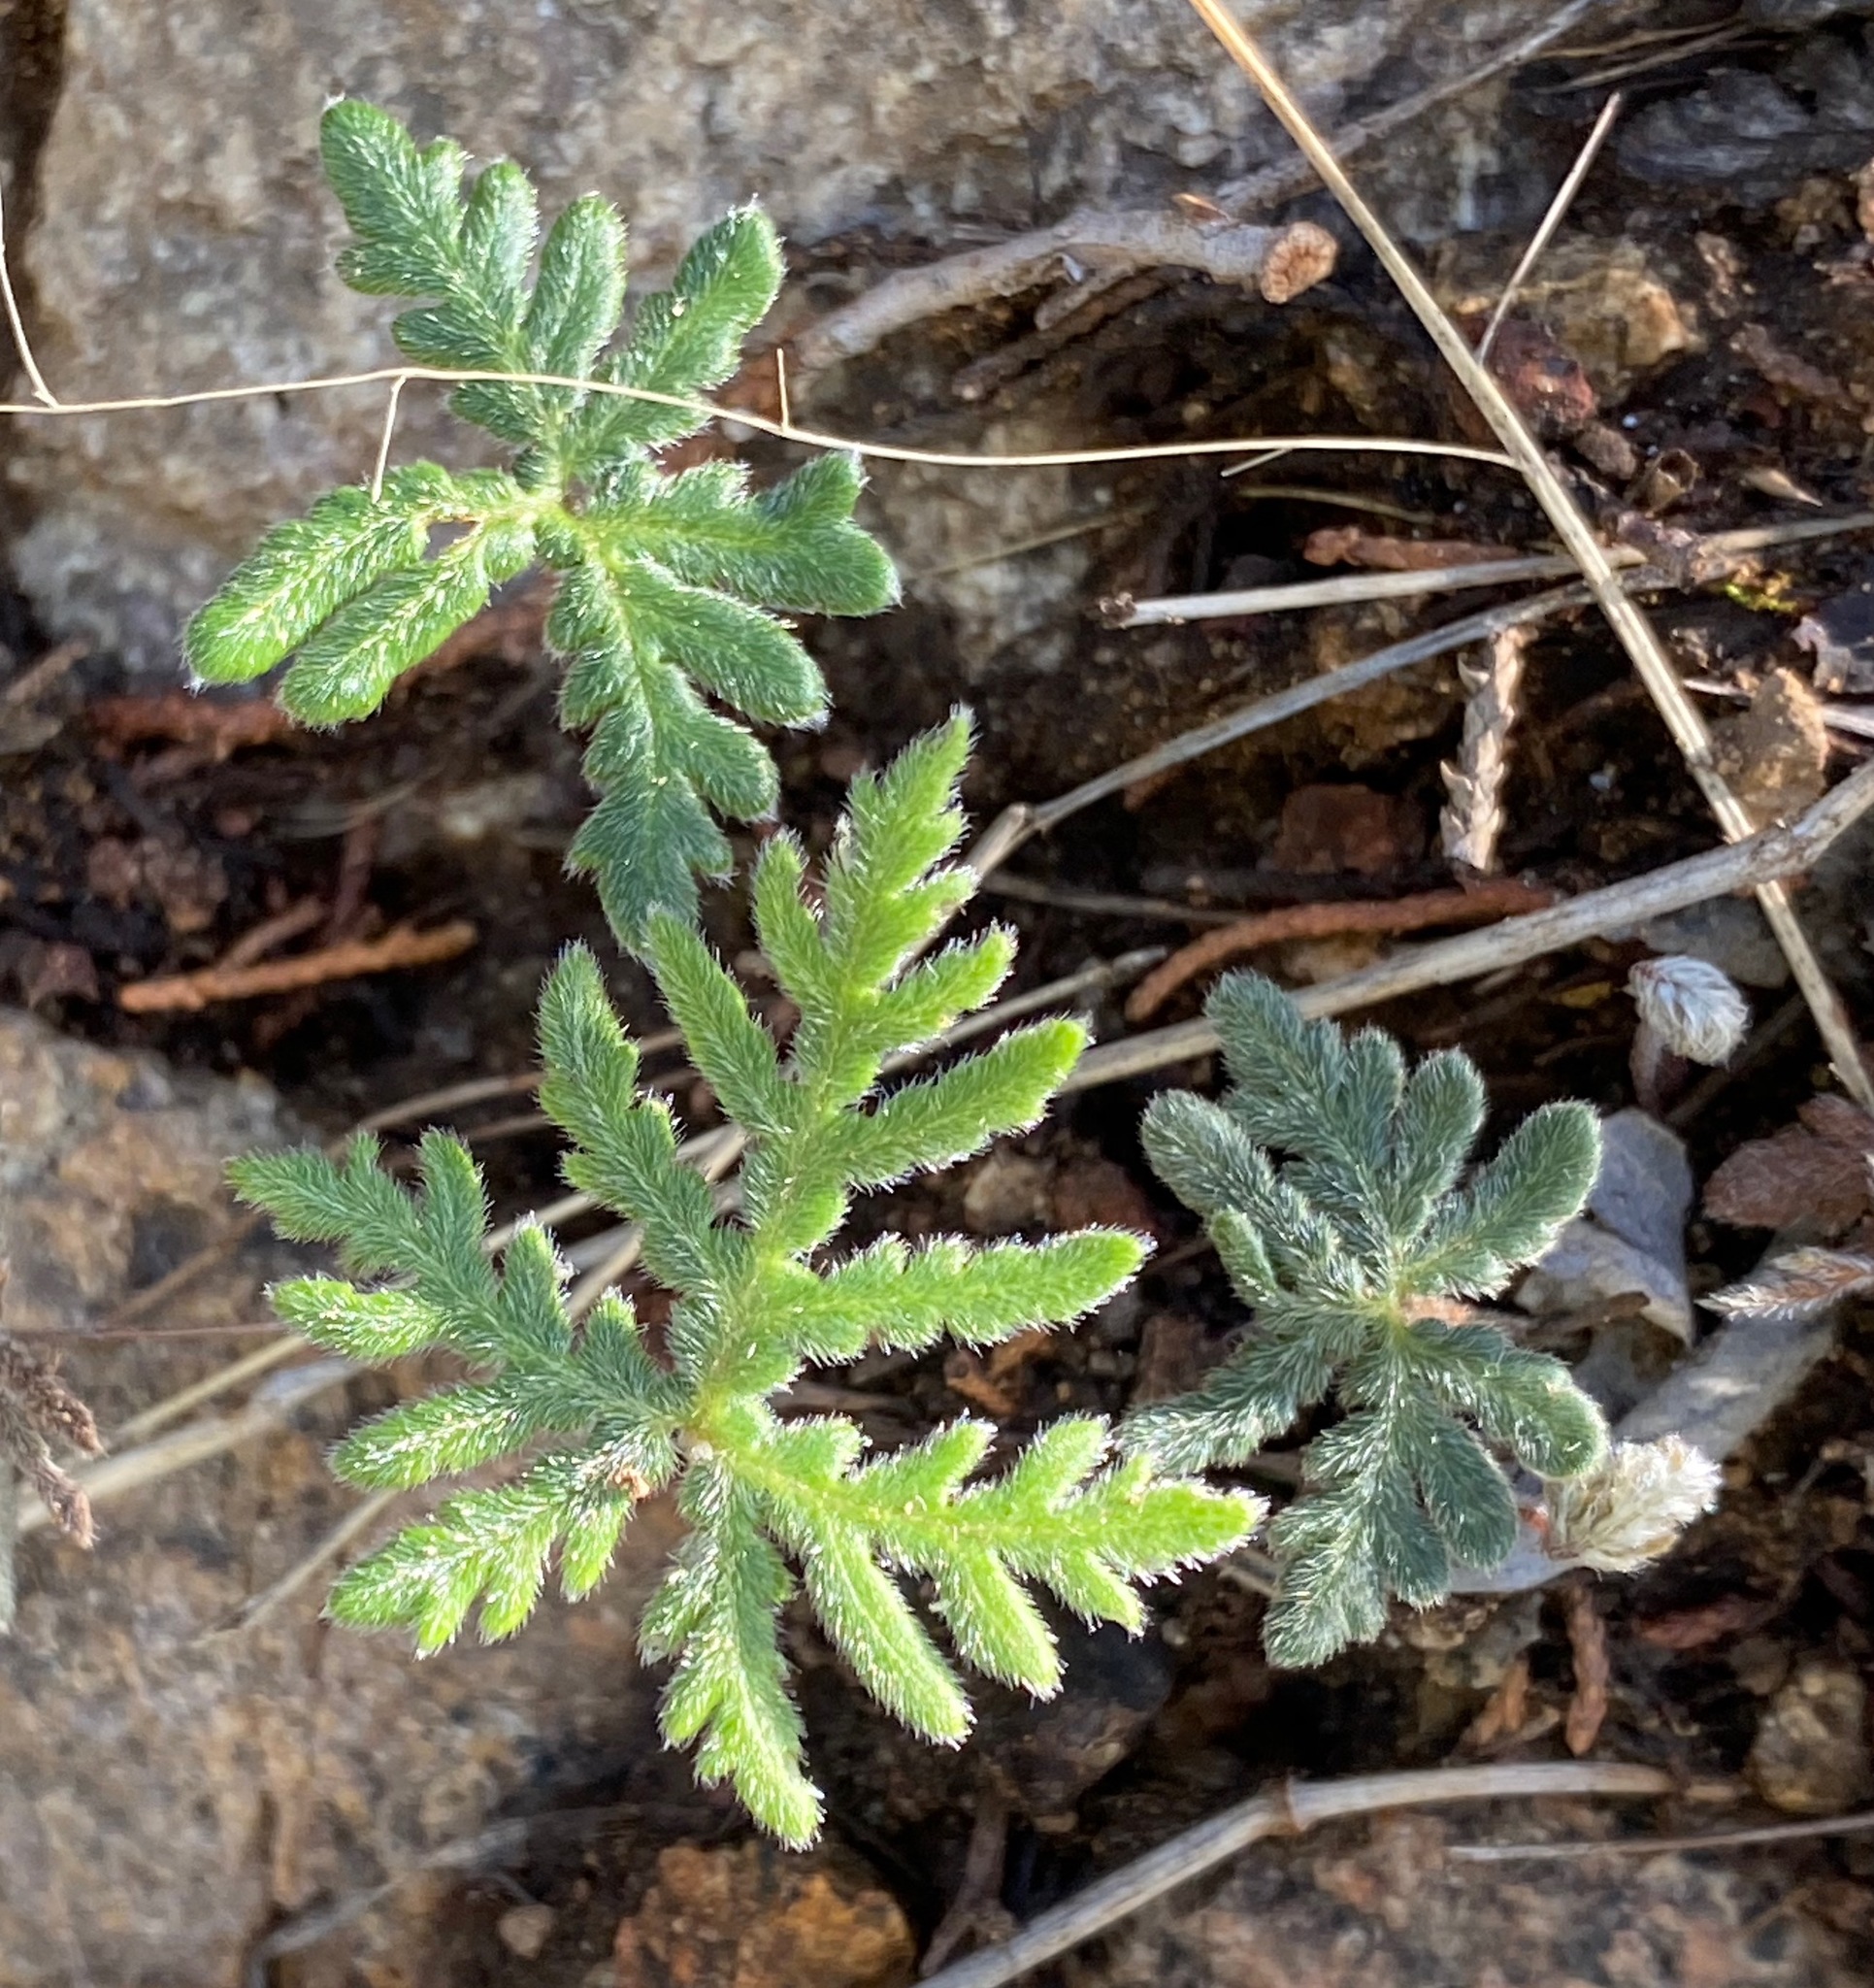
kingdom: Plantae
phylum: Tracheophyta
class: Polypodiopsida
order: Polypodiales
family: Pteridaceae
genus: Bommeria
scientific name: Bommeria hispida
